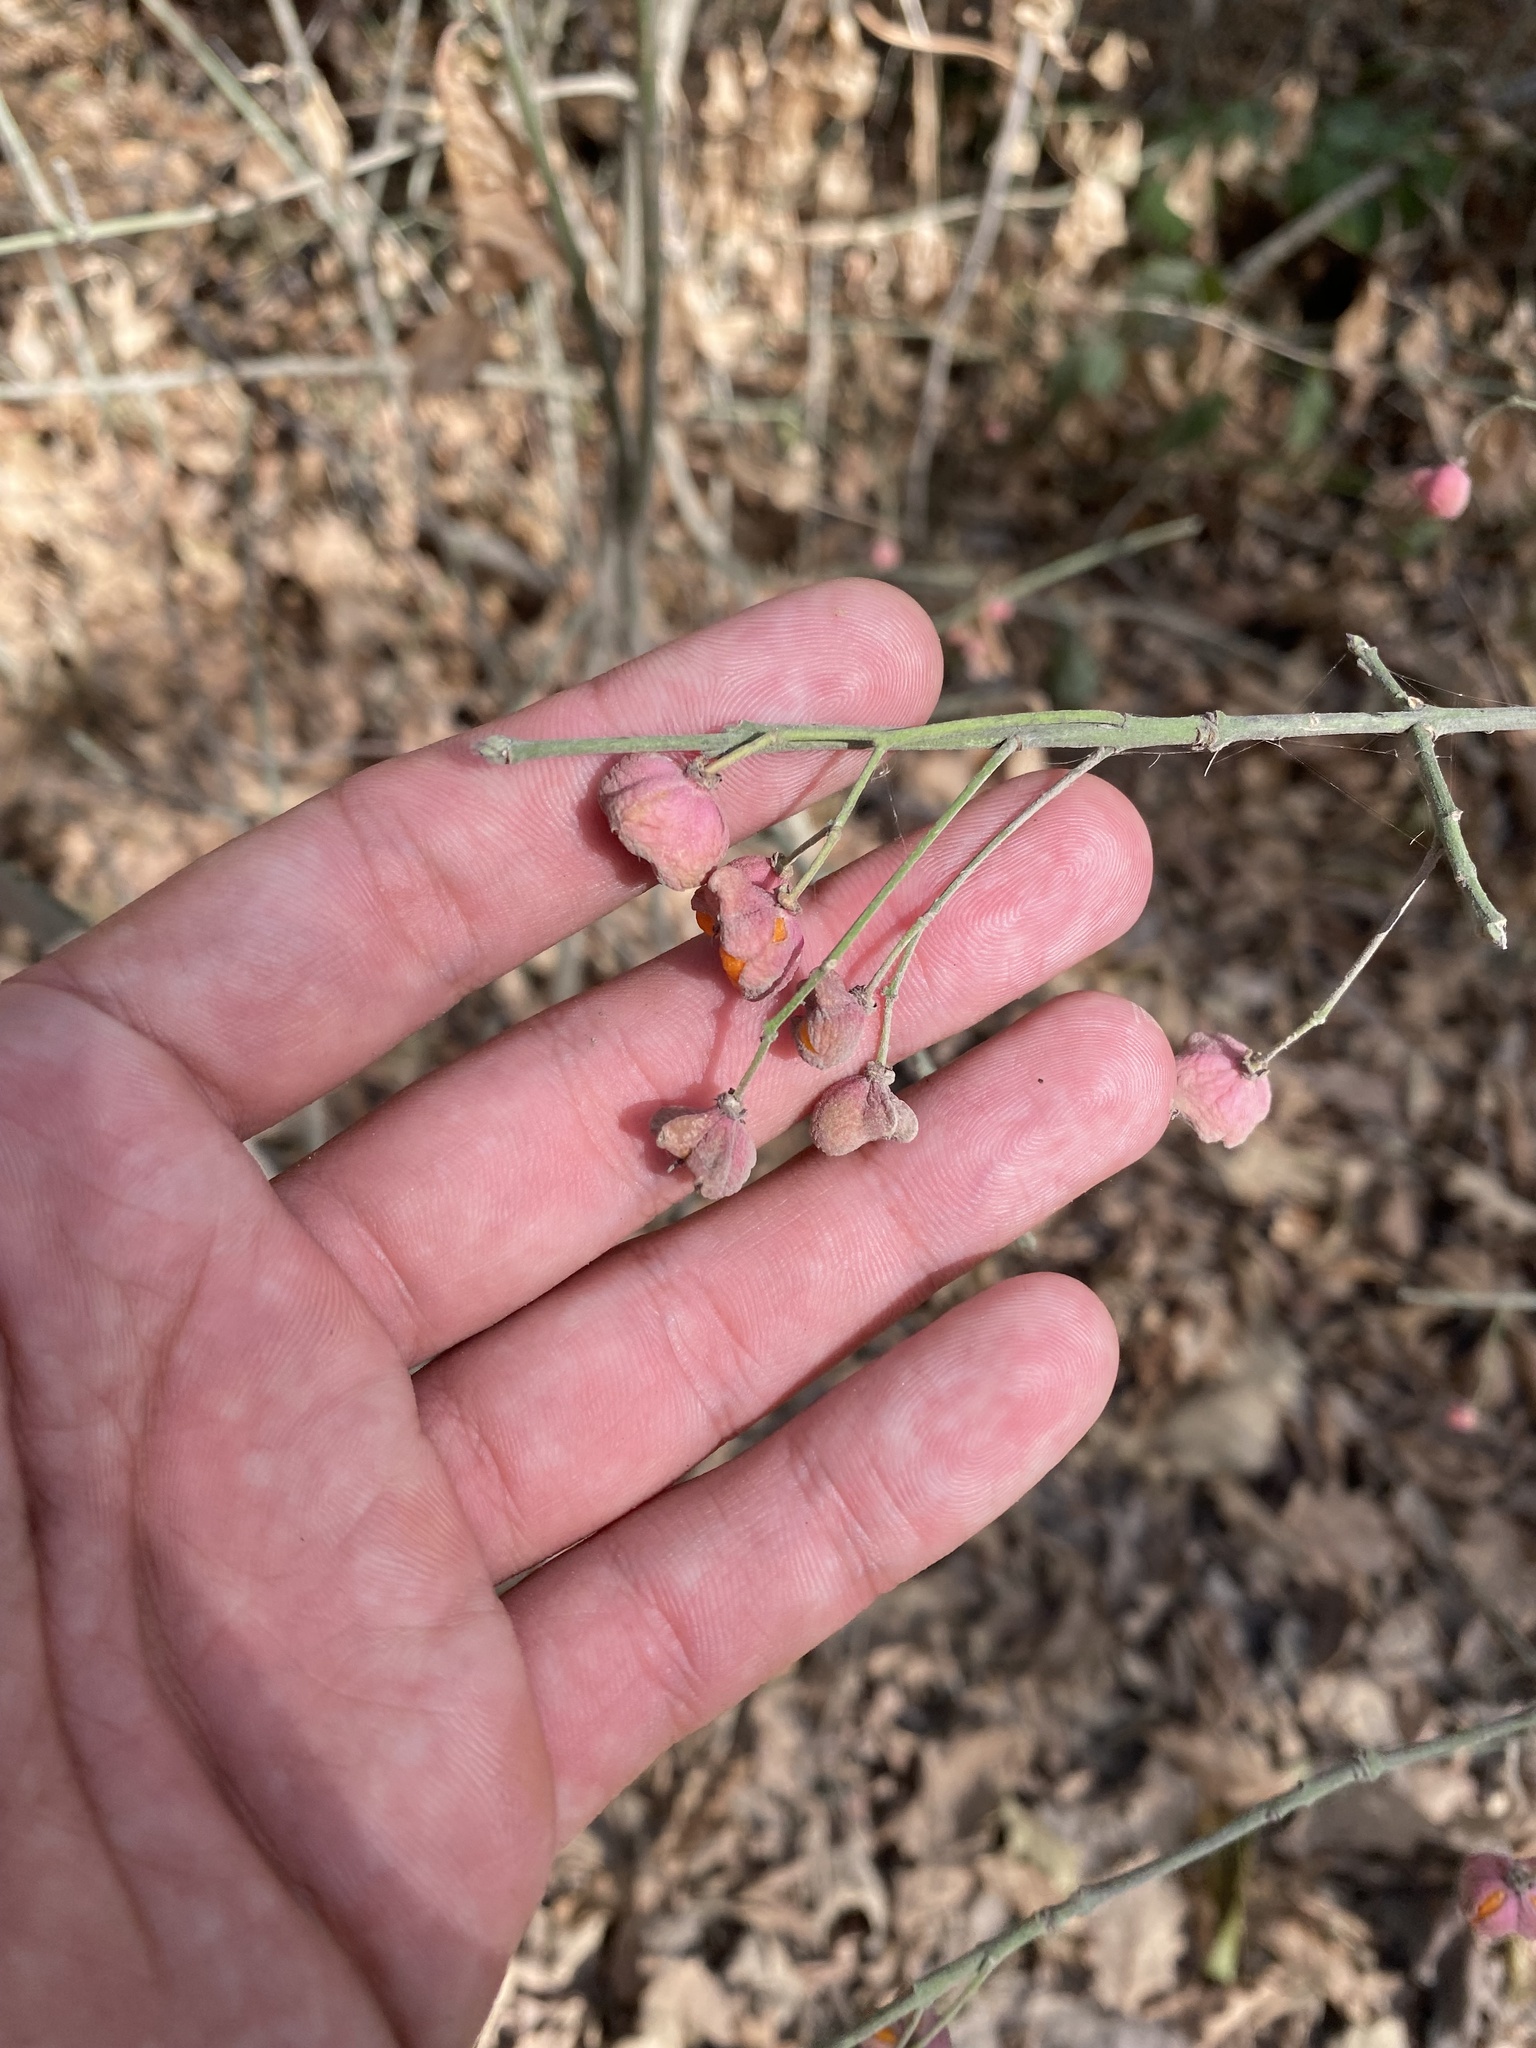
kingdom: Plantae
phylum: Tracheophyta
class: Magnoliopsida
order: Celastrales
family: Celastraceae
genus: Euonymus
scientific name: Euonymus europaeus
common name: Spindle
